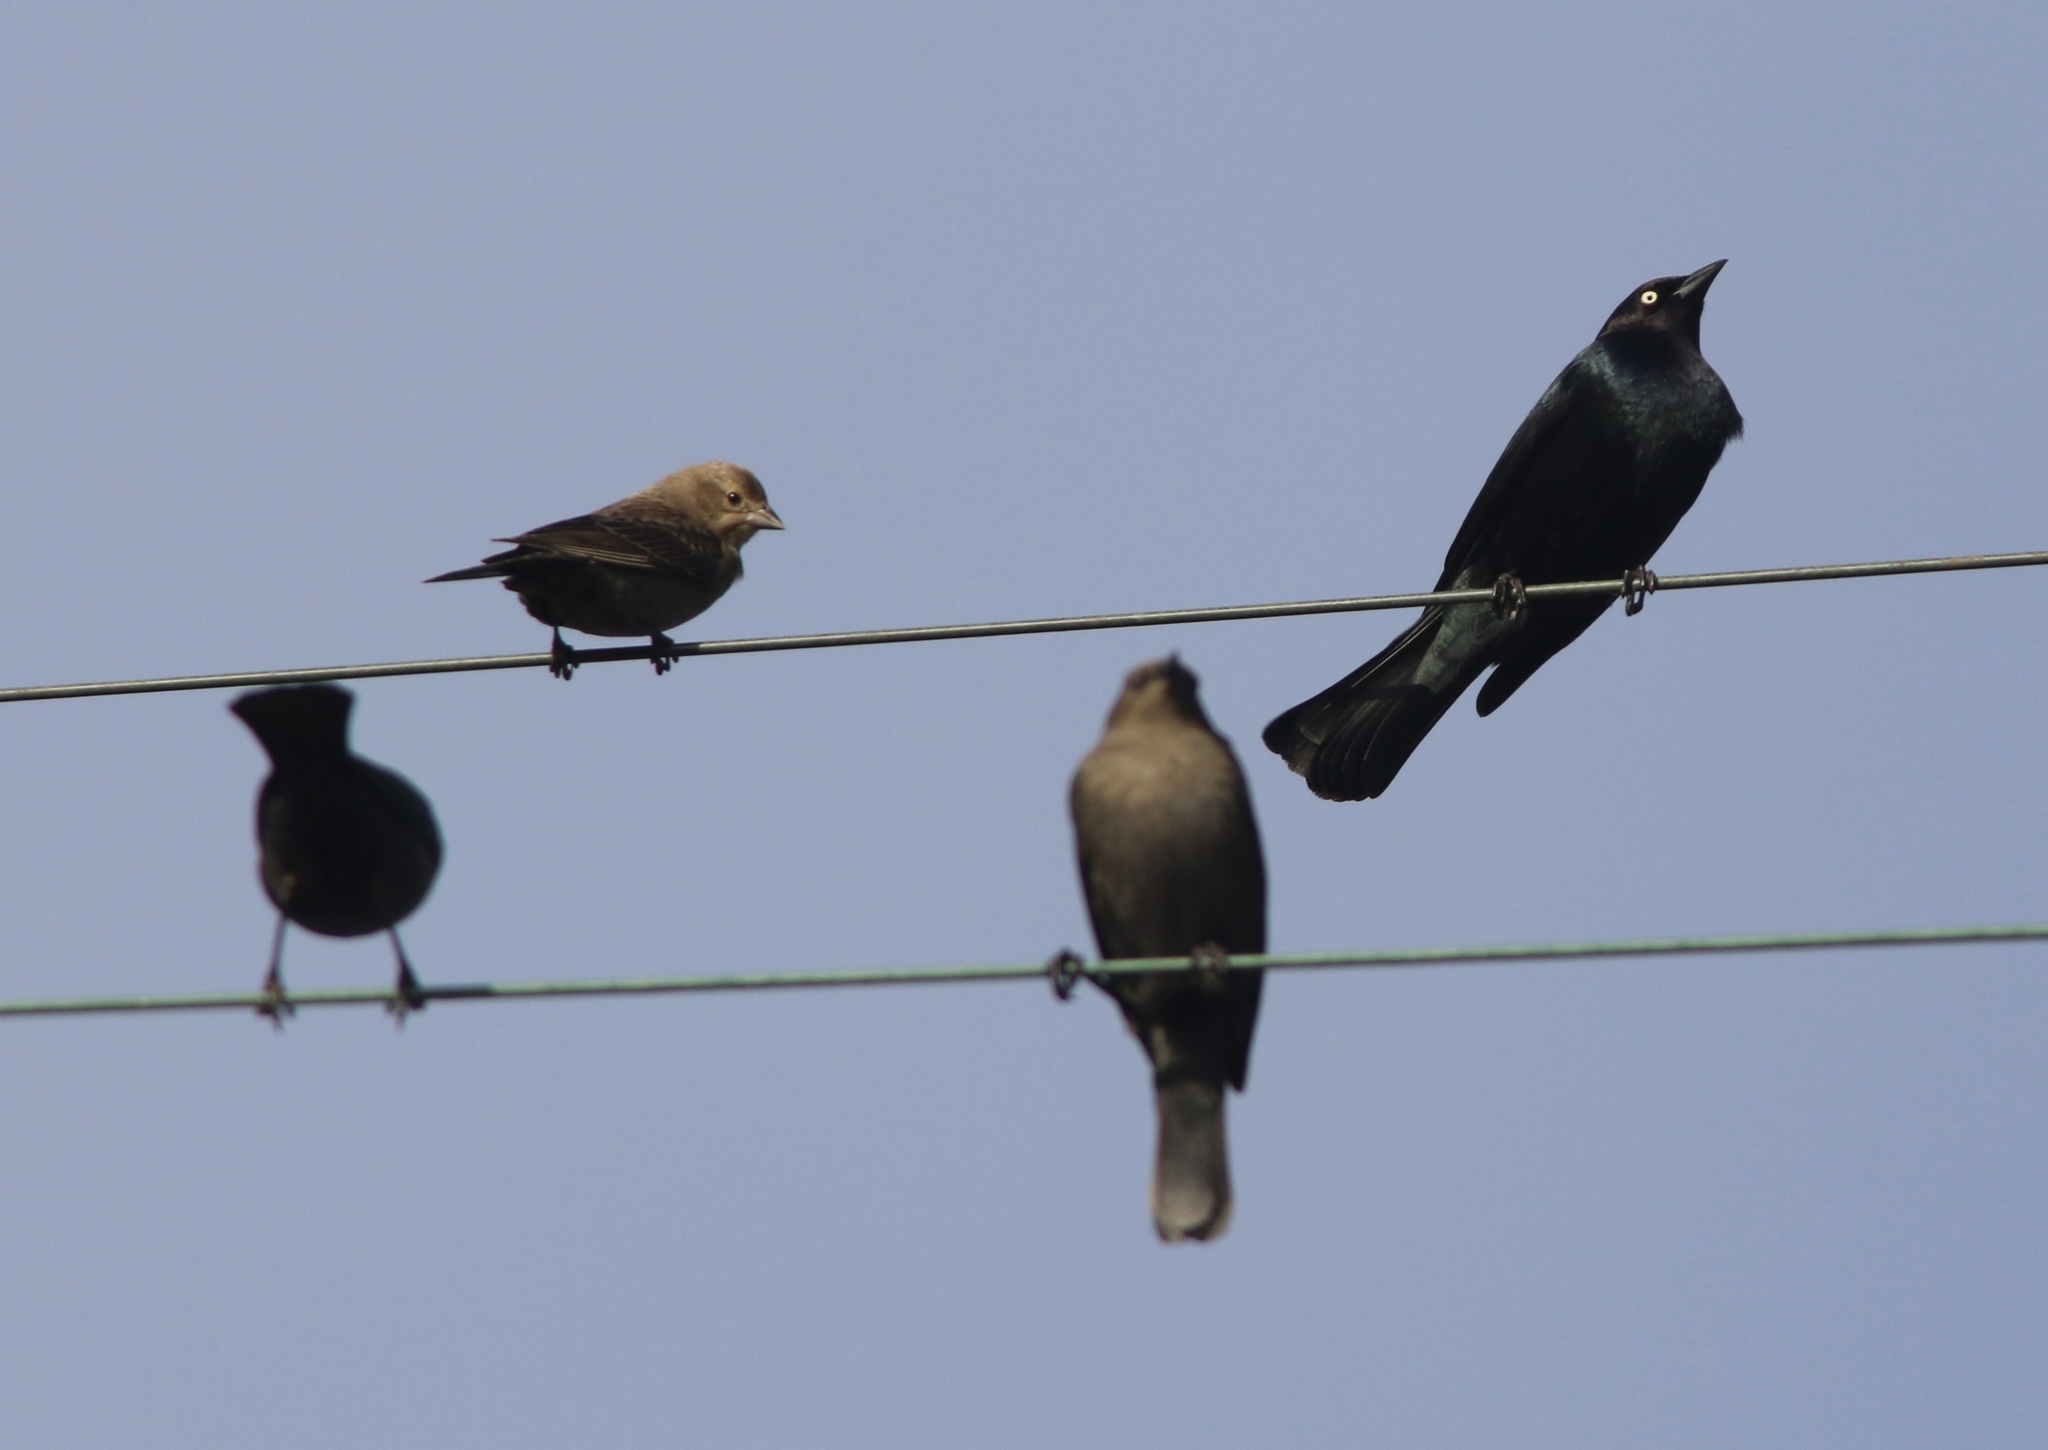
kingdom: Animalia
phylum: Chordata
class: Aves
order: Passeriformes
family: Icteridae
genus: Euphagus
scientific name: Euphagus cyanocephalus
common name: Brewer's blackbird
